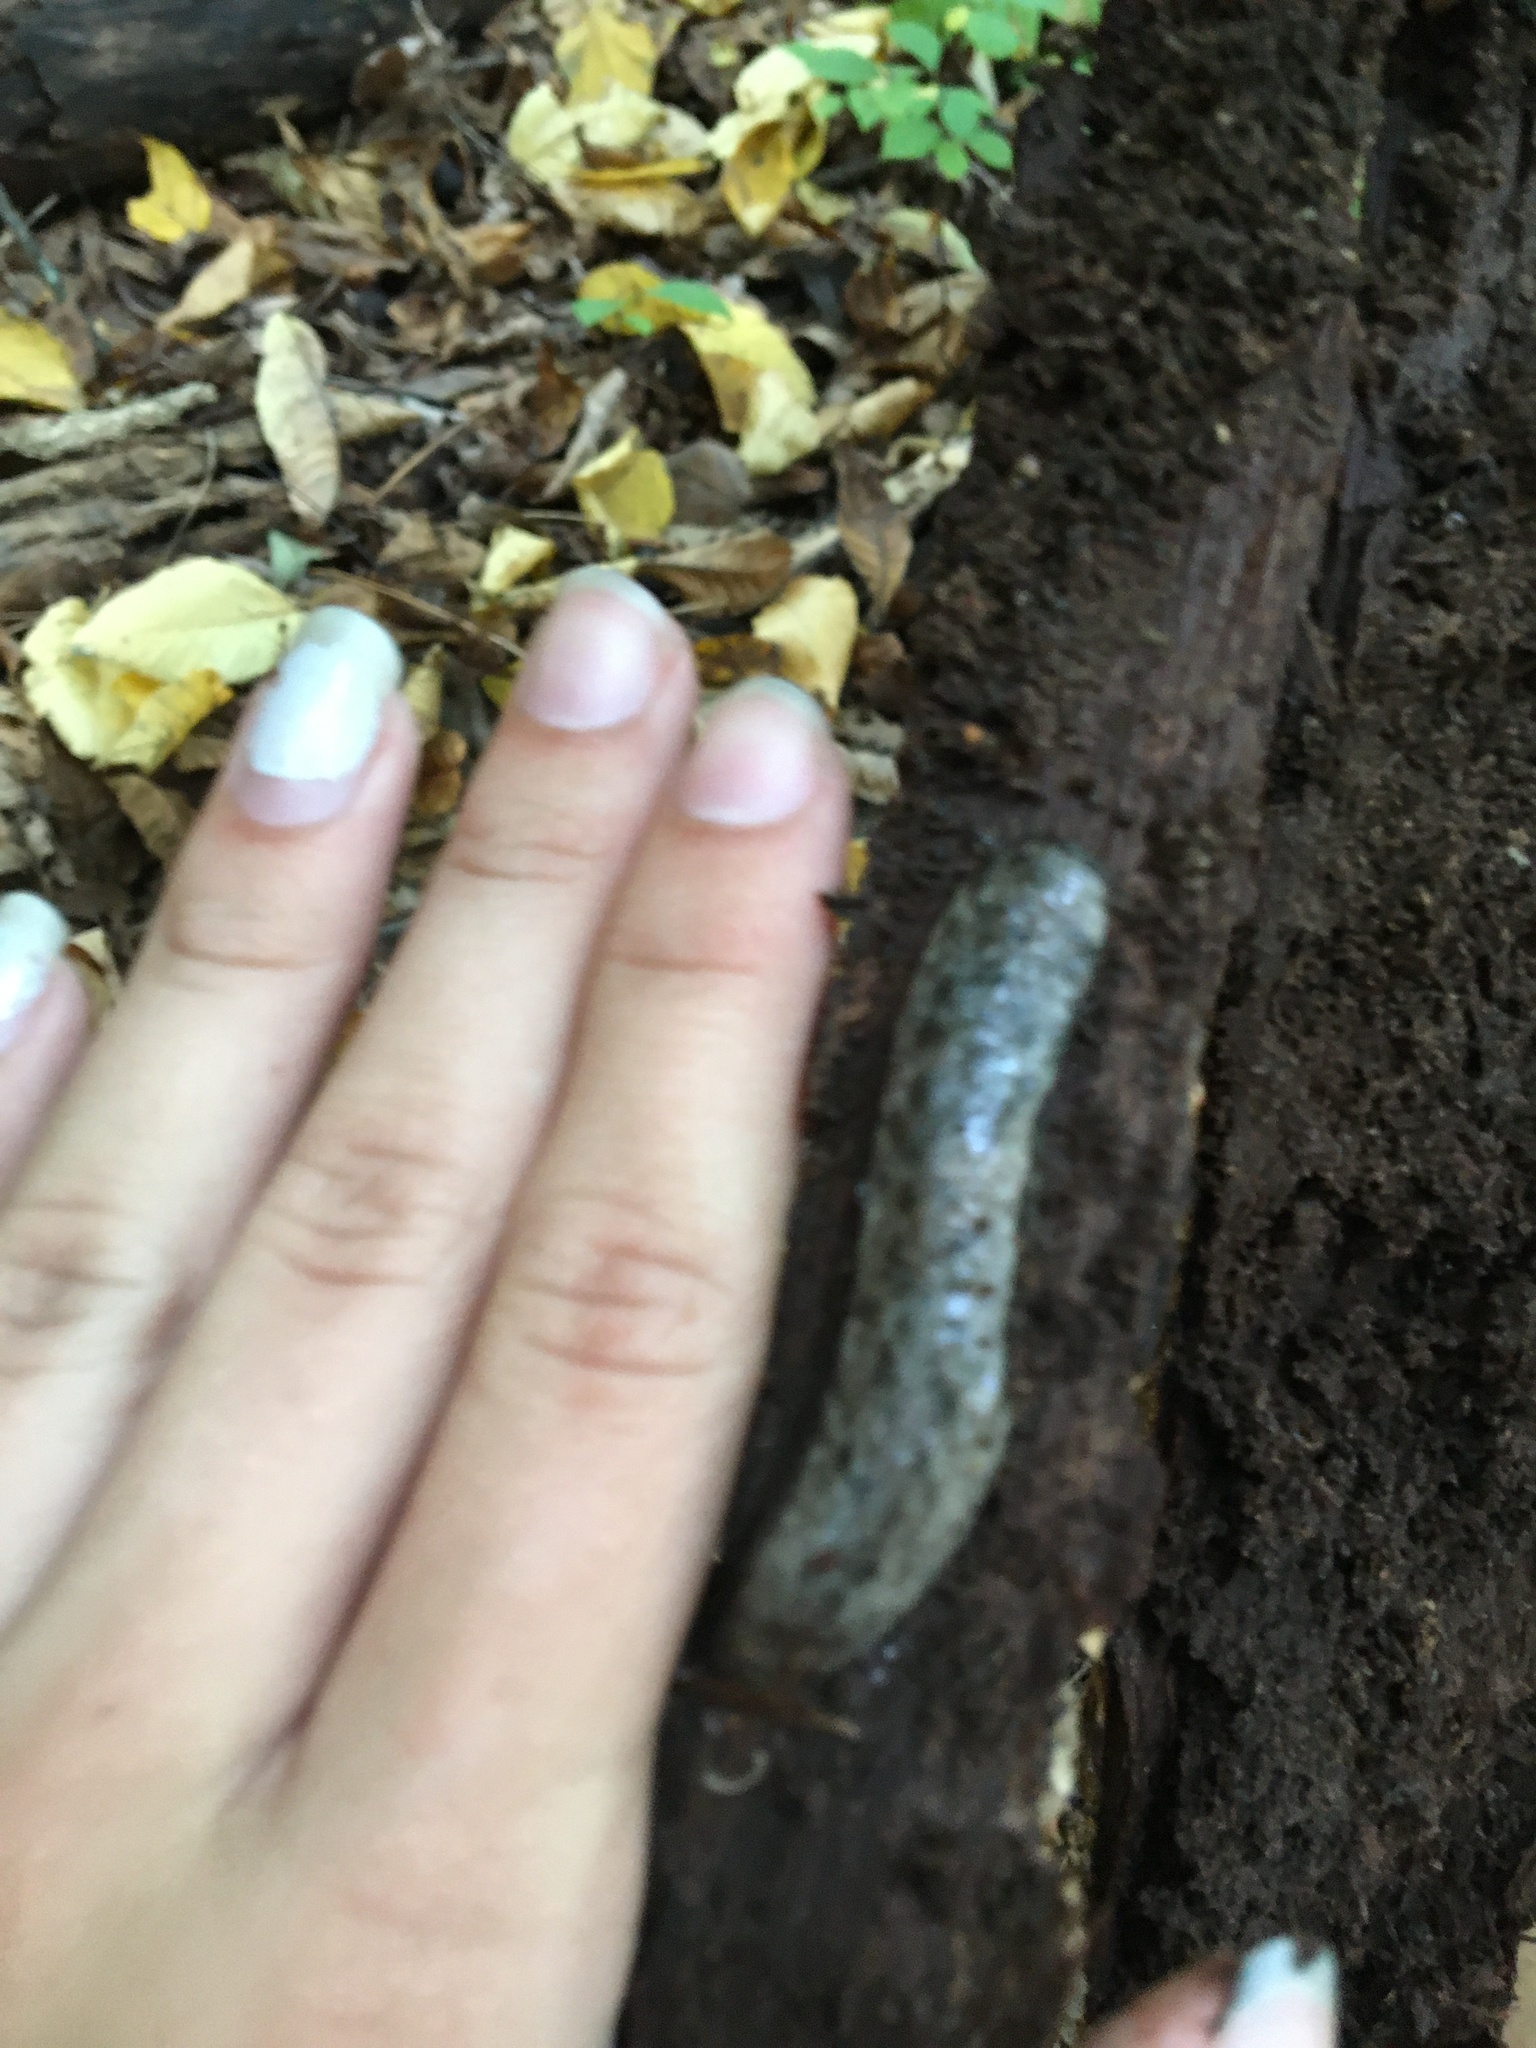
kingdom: Animalia
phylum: Mollusca
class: Gastropoda
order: Stylommatophora
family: Philomycidae
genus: Megapallifera
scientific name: Megapallifera mutabilis
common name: Changeable mantleslug
